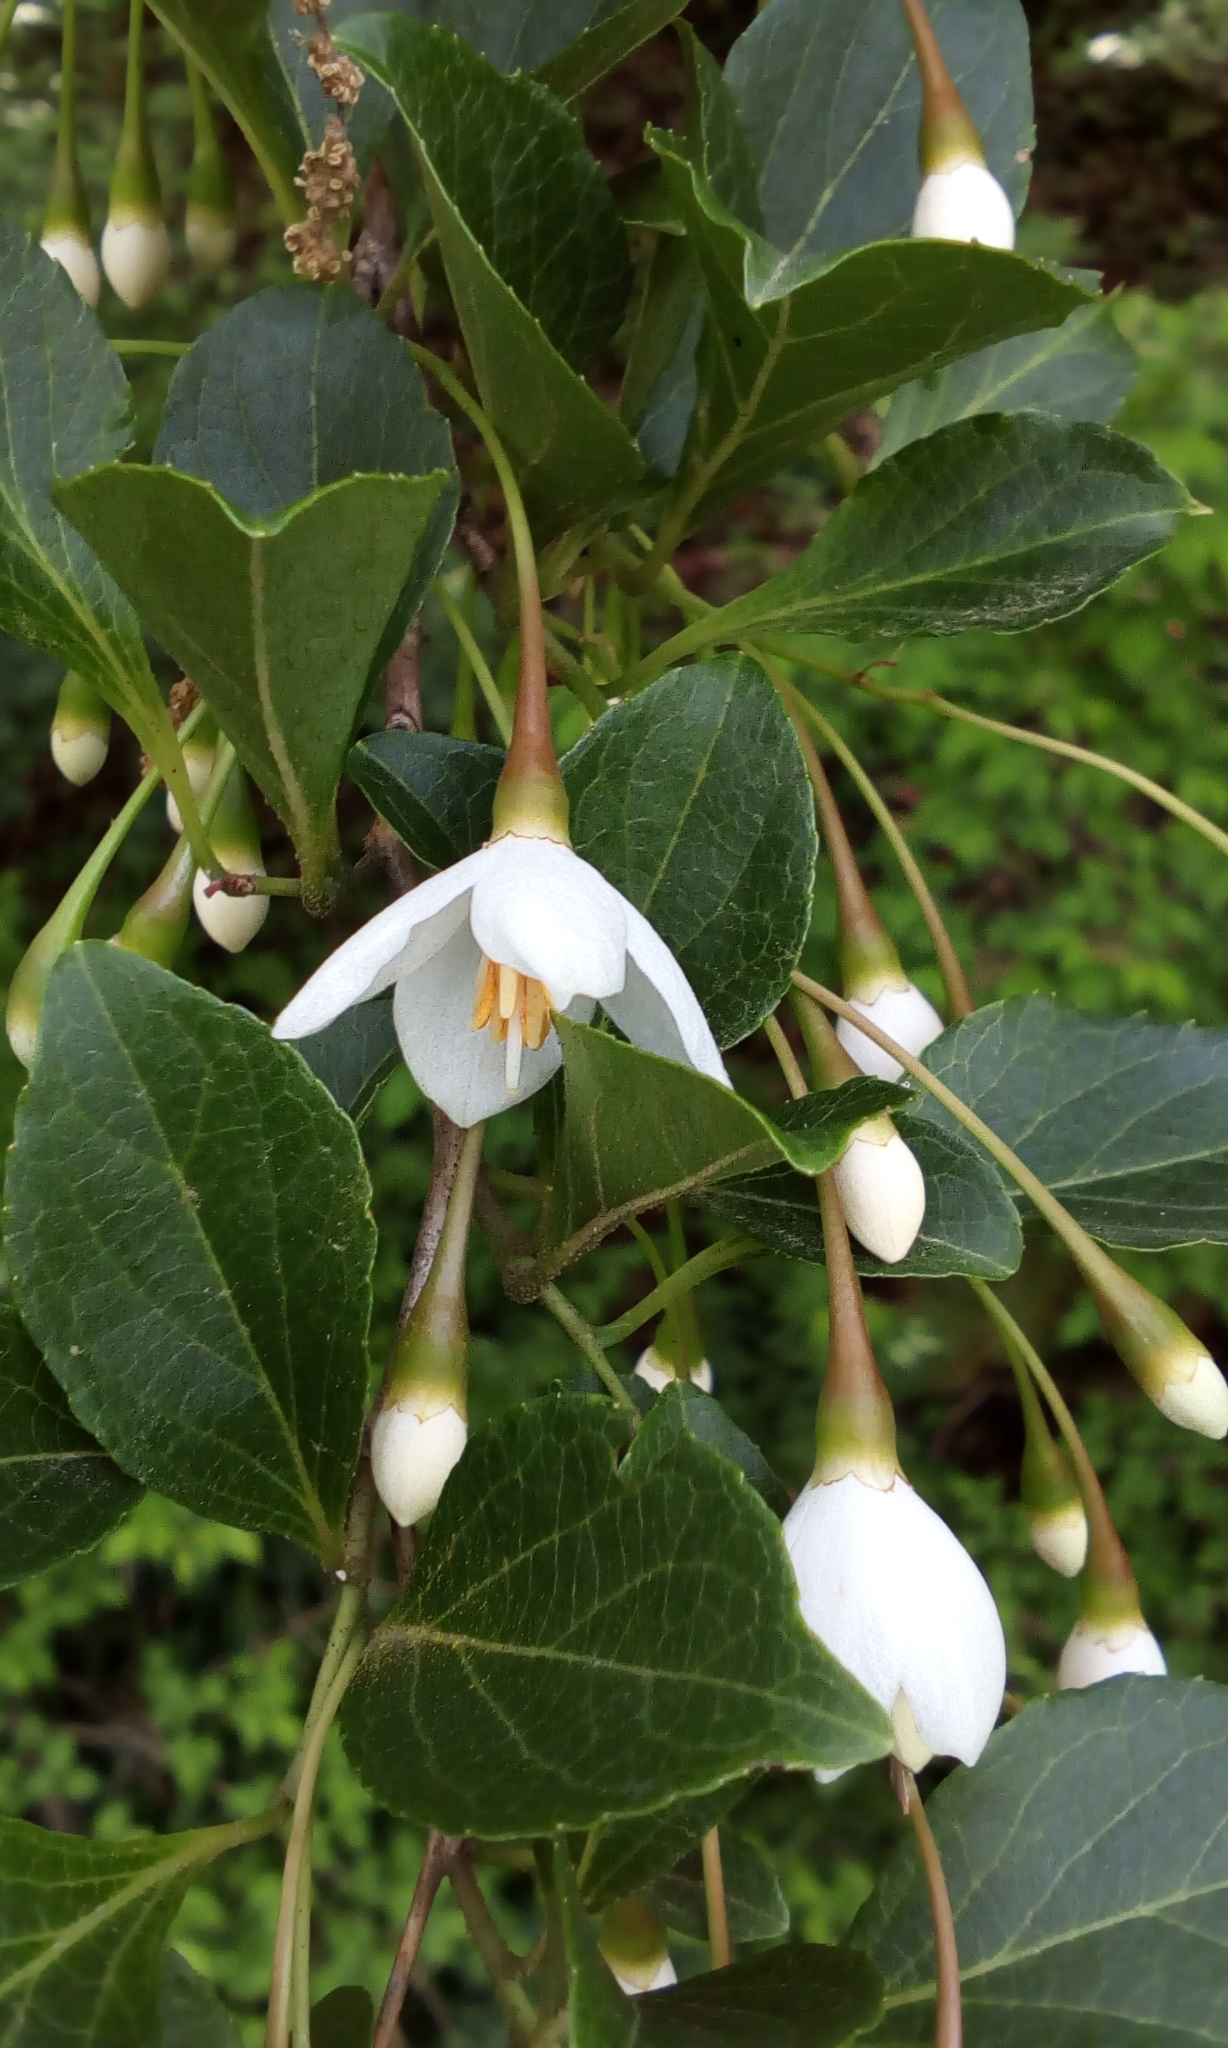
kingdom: Plantae
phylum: Tracheophyta
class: Magnoliopsida
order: Ericales
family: Styracaceae
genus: Styrax
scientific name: Styrax japonicus
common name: Japanese snowbell
